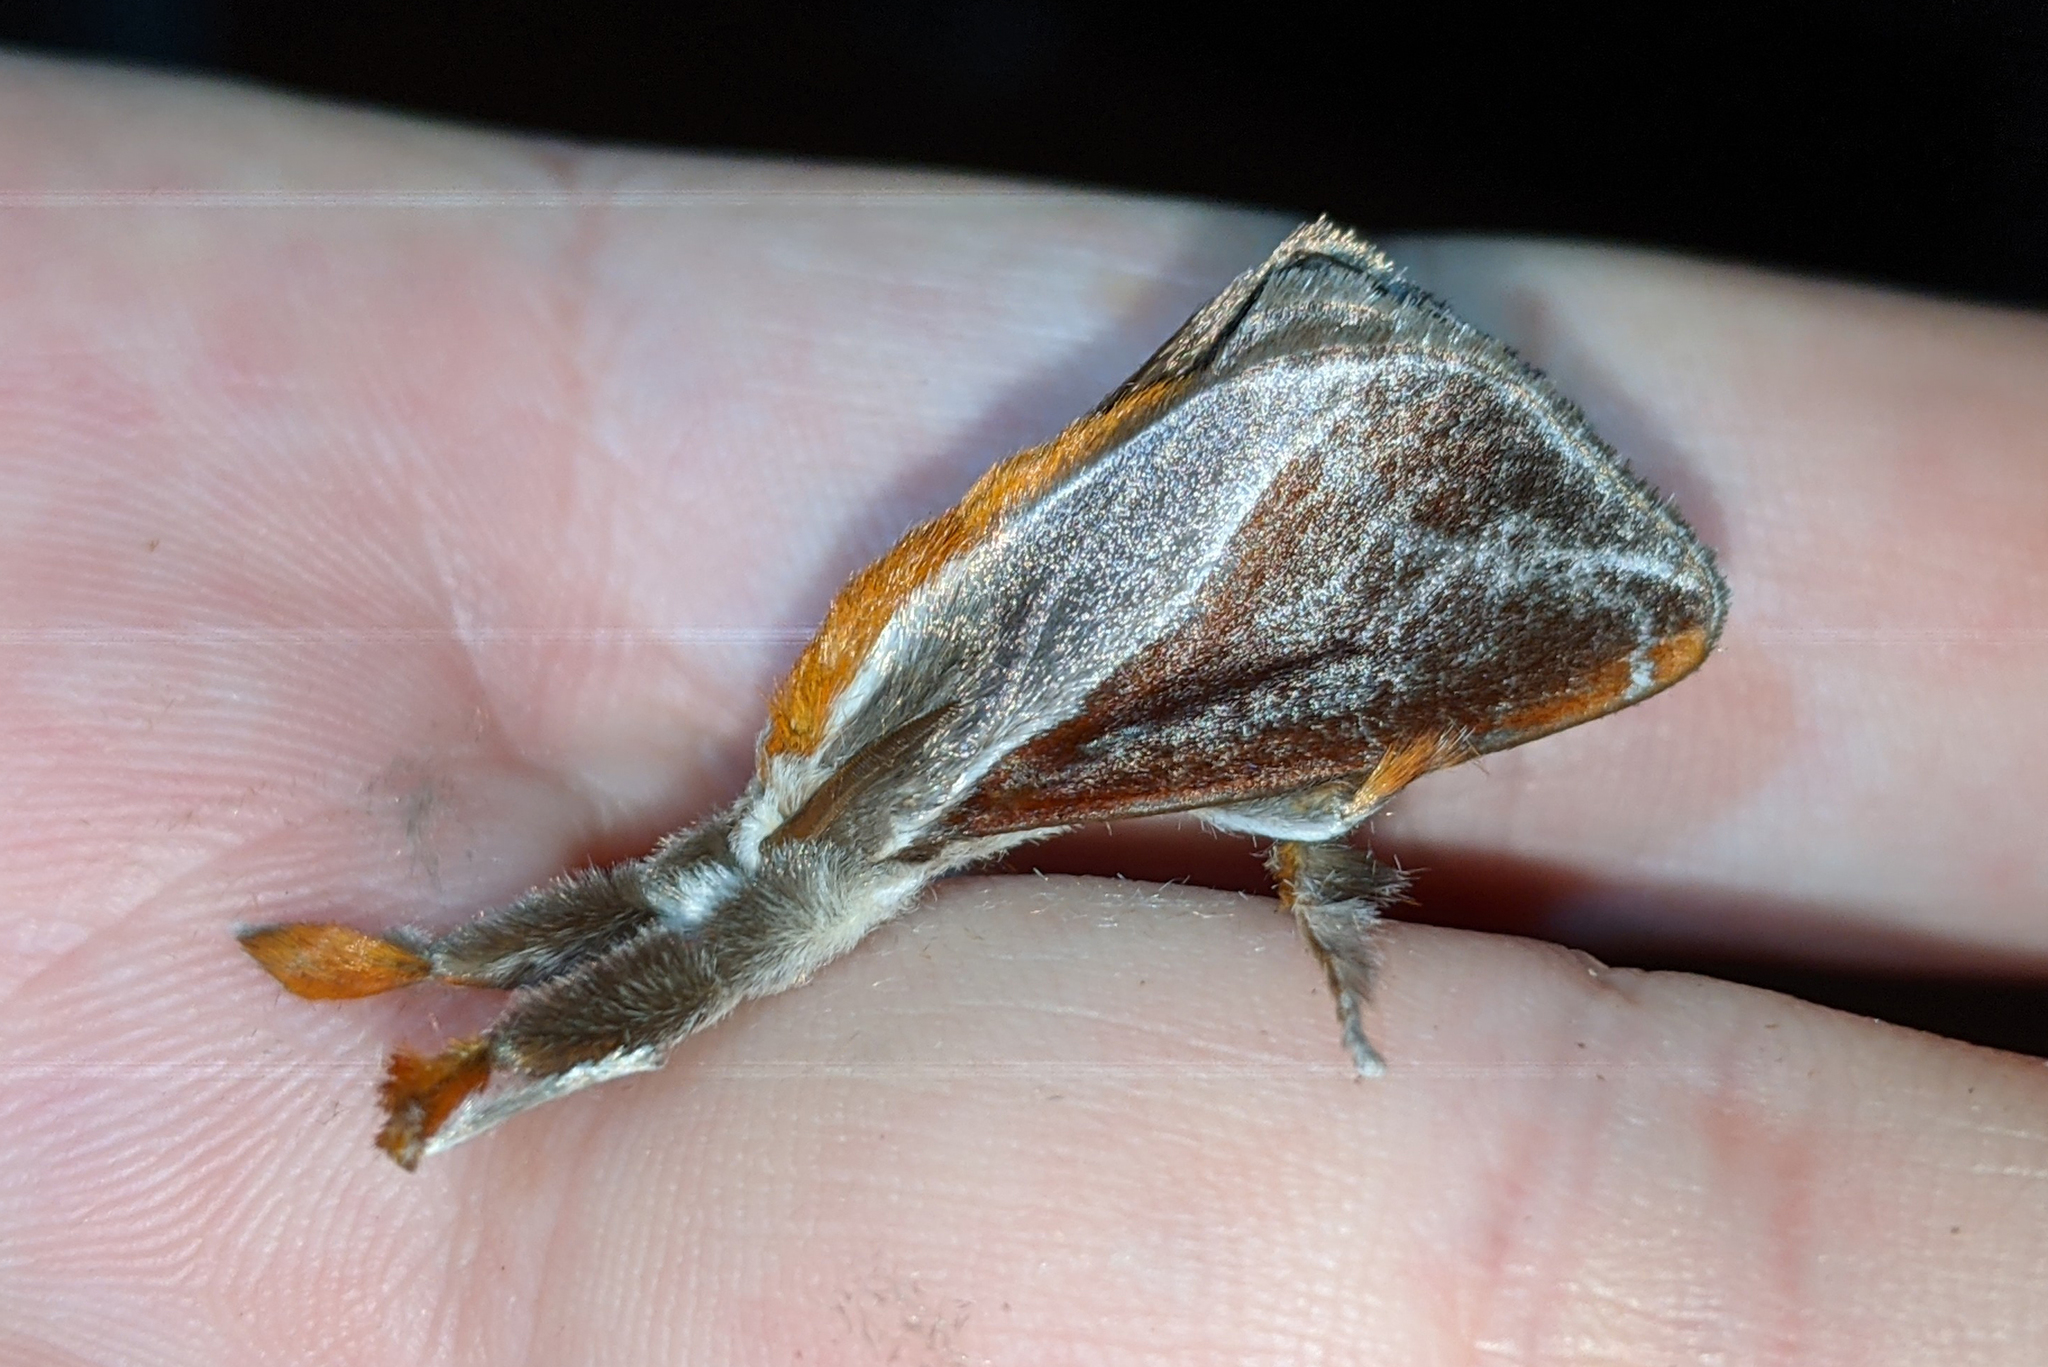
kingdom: Animalia
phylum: Arthropoda
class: Insecta
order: Lepidoptera
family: Limacodidae
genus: Epiperola
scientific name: Epiperola grandiosa
